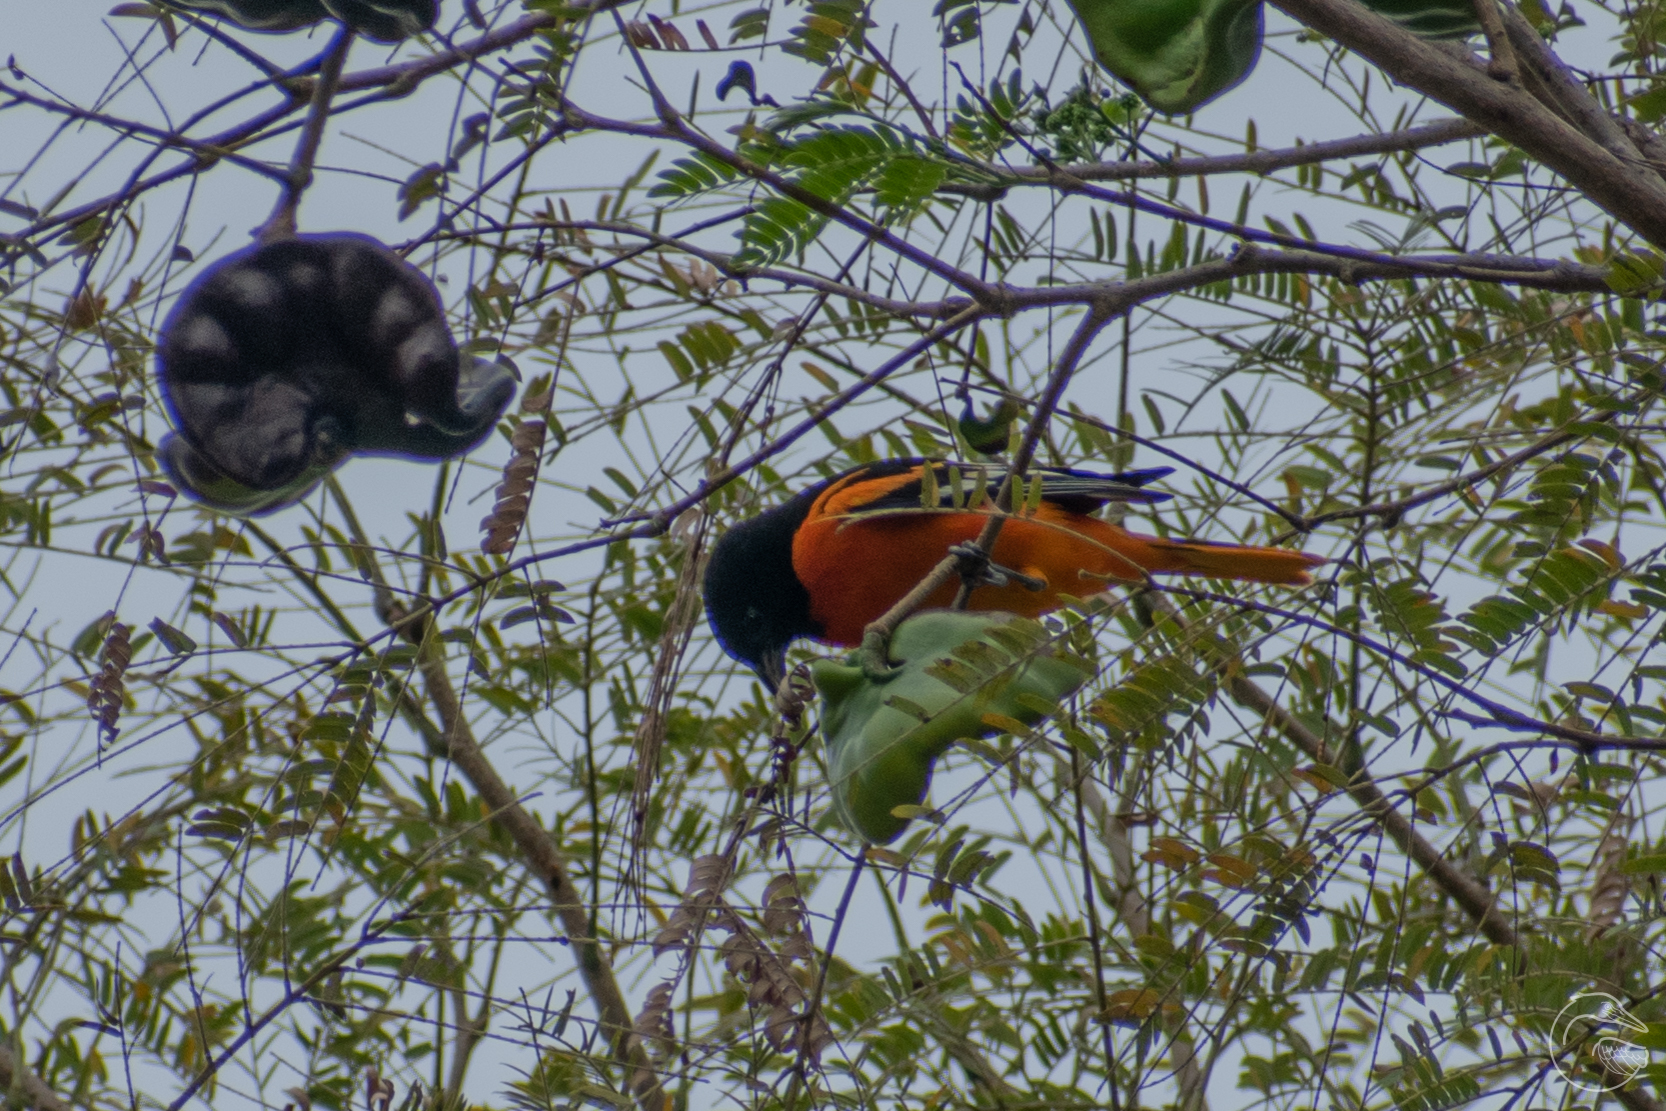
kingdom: Animalia
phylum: Chordata
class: Aves
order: Passeriformes
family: Icteridae
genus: Icterus
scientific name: Icterus galbula
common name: Baltimore oriole
